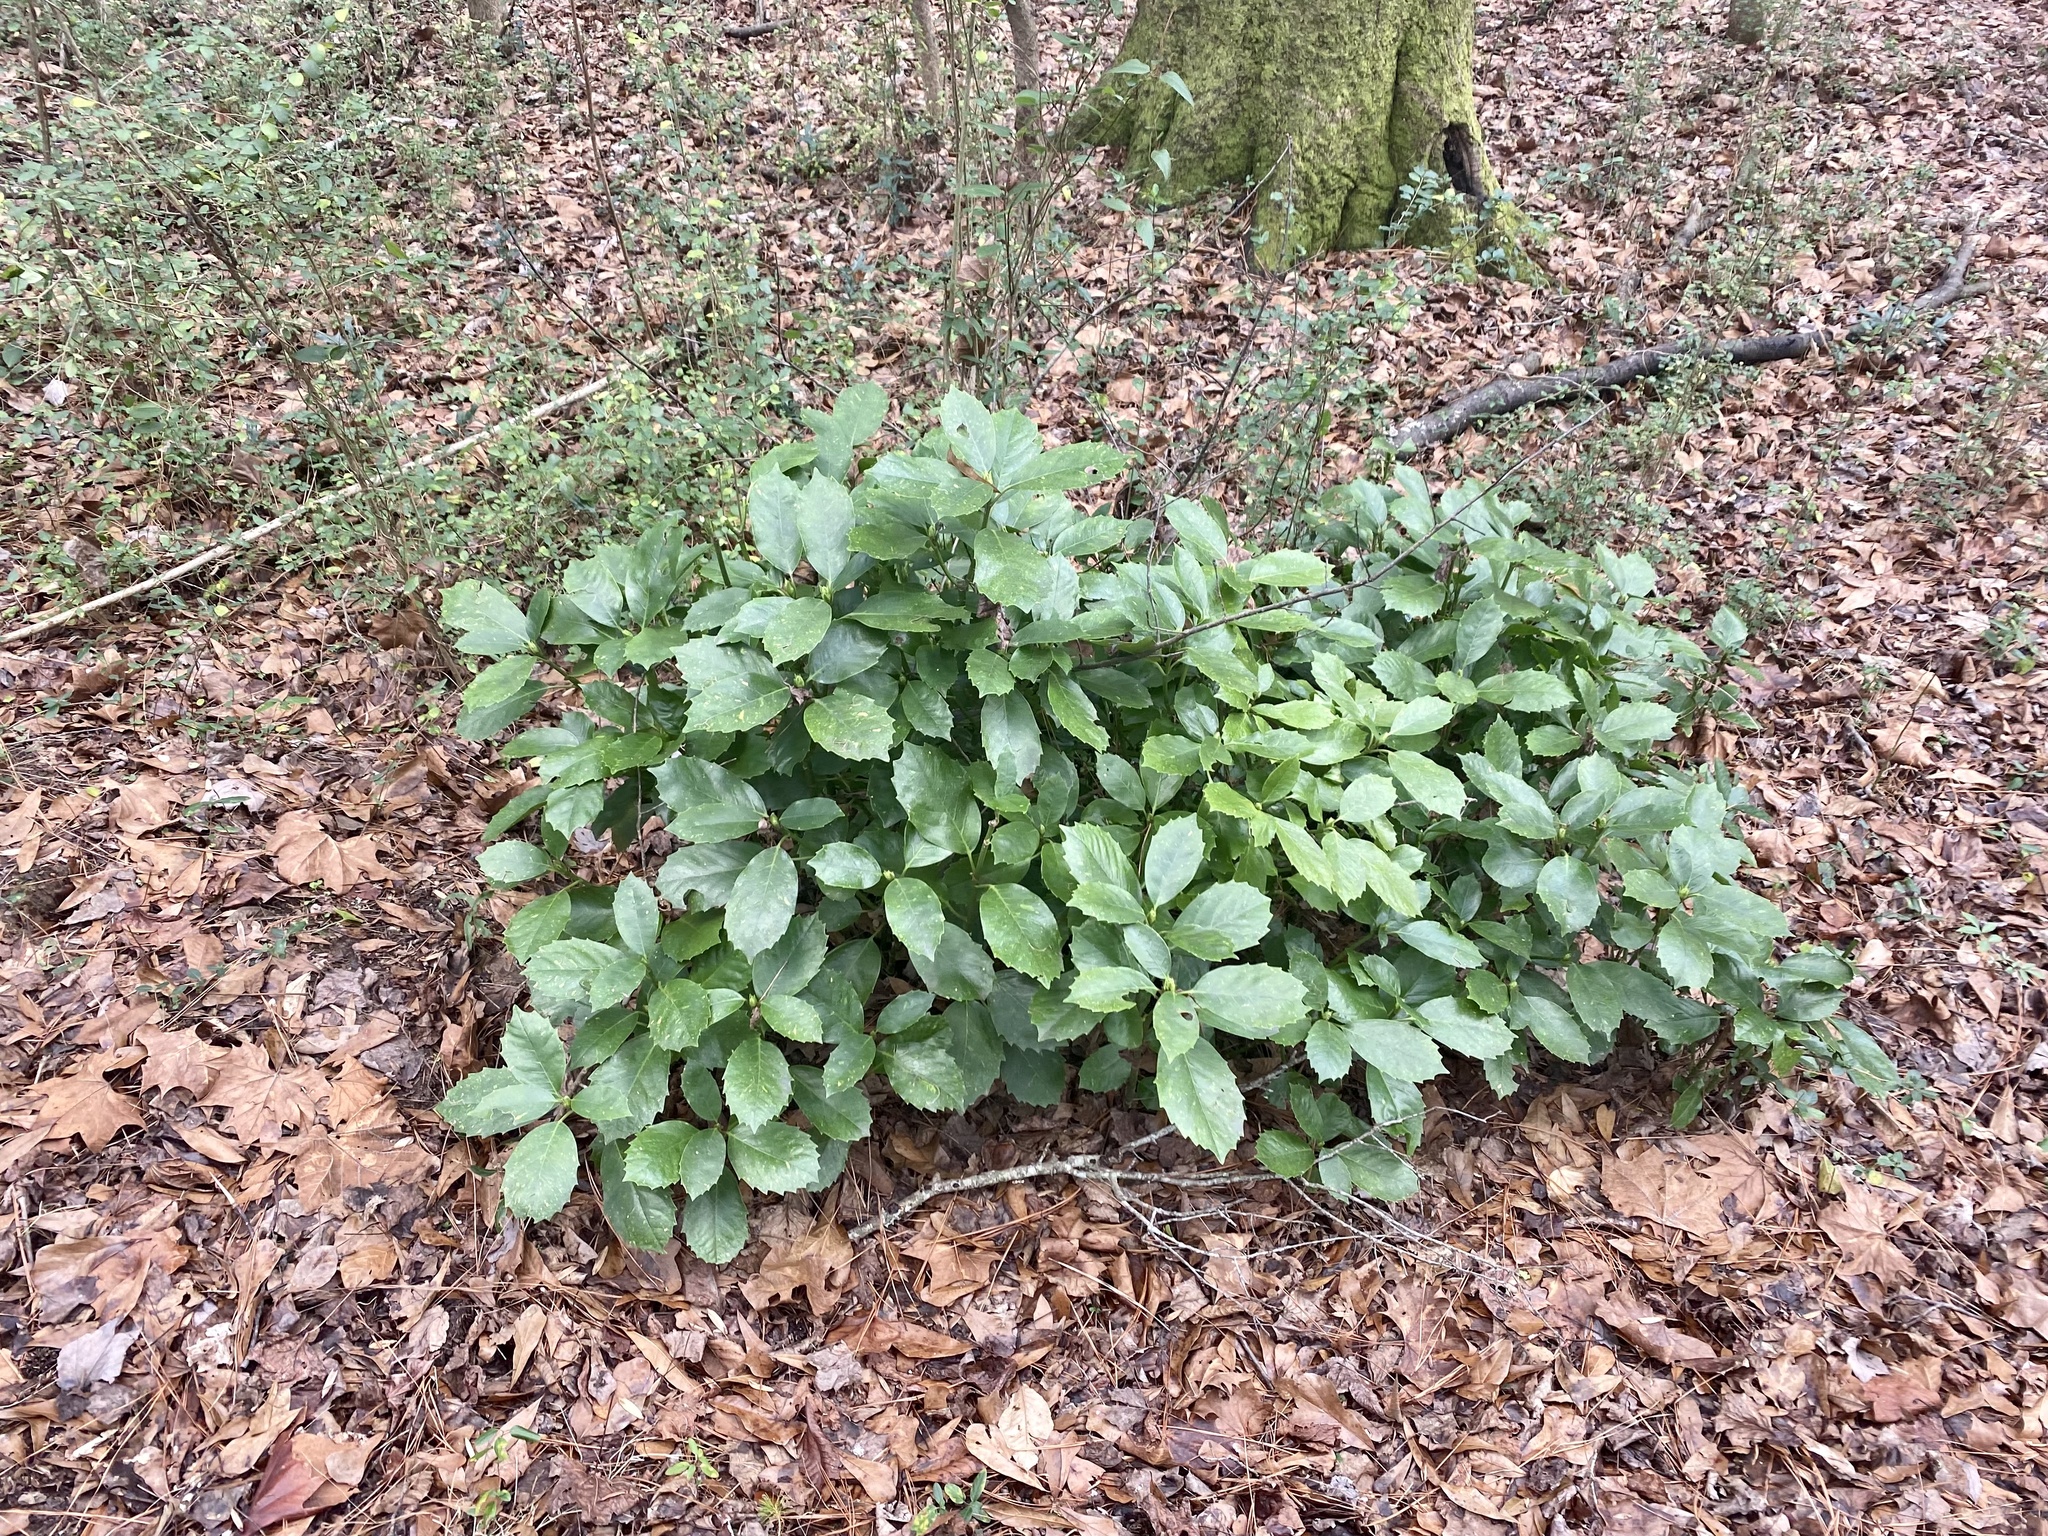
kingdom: Plantae
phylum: Tracheophyta
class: Magnoliopsida
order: Garryales
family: Garryaceae
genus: Aucuba
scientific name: Aucuba japonica
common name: Spotted-laurel
